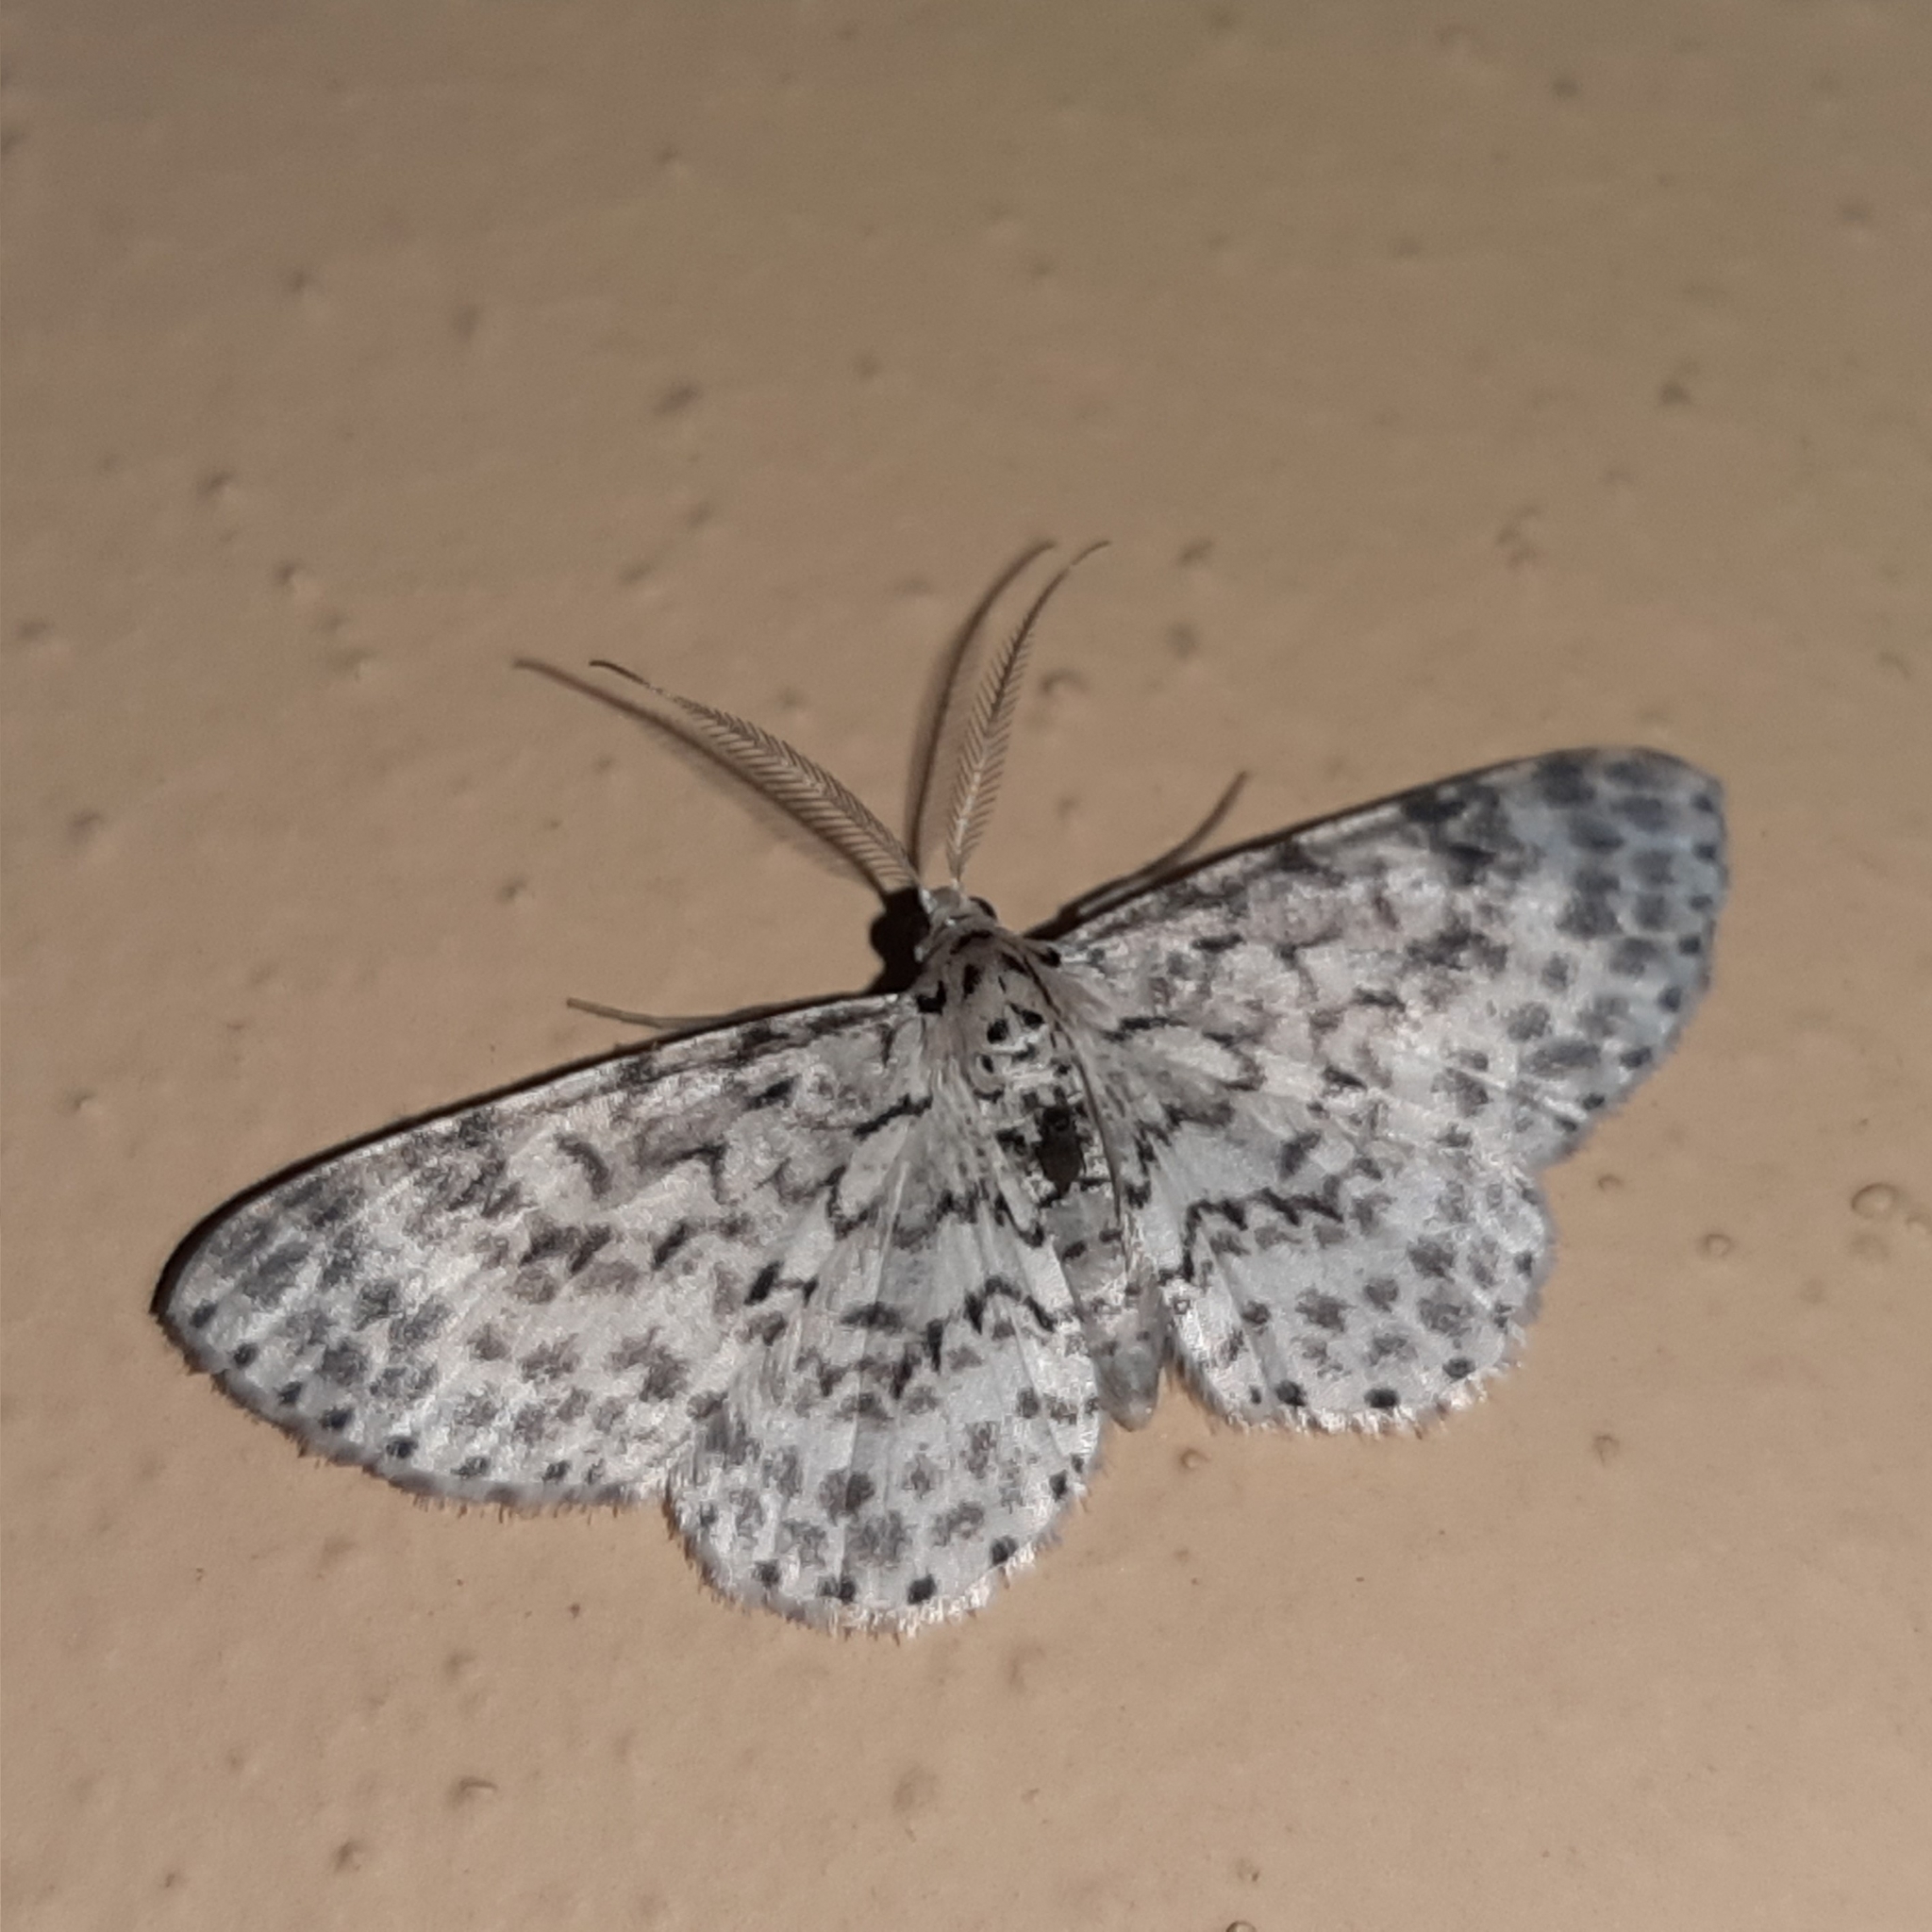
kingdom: Animalia
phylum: Arthropoda
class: Insecta
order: Lepidoptera
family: Geometridae
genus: Hymenomima
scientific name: Hymenomima umbelularia
